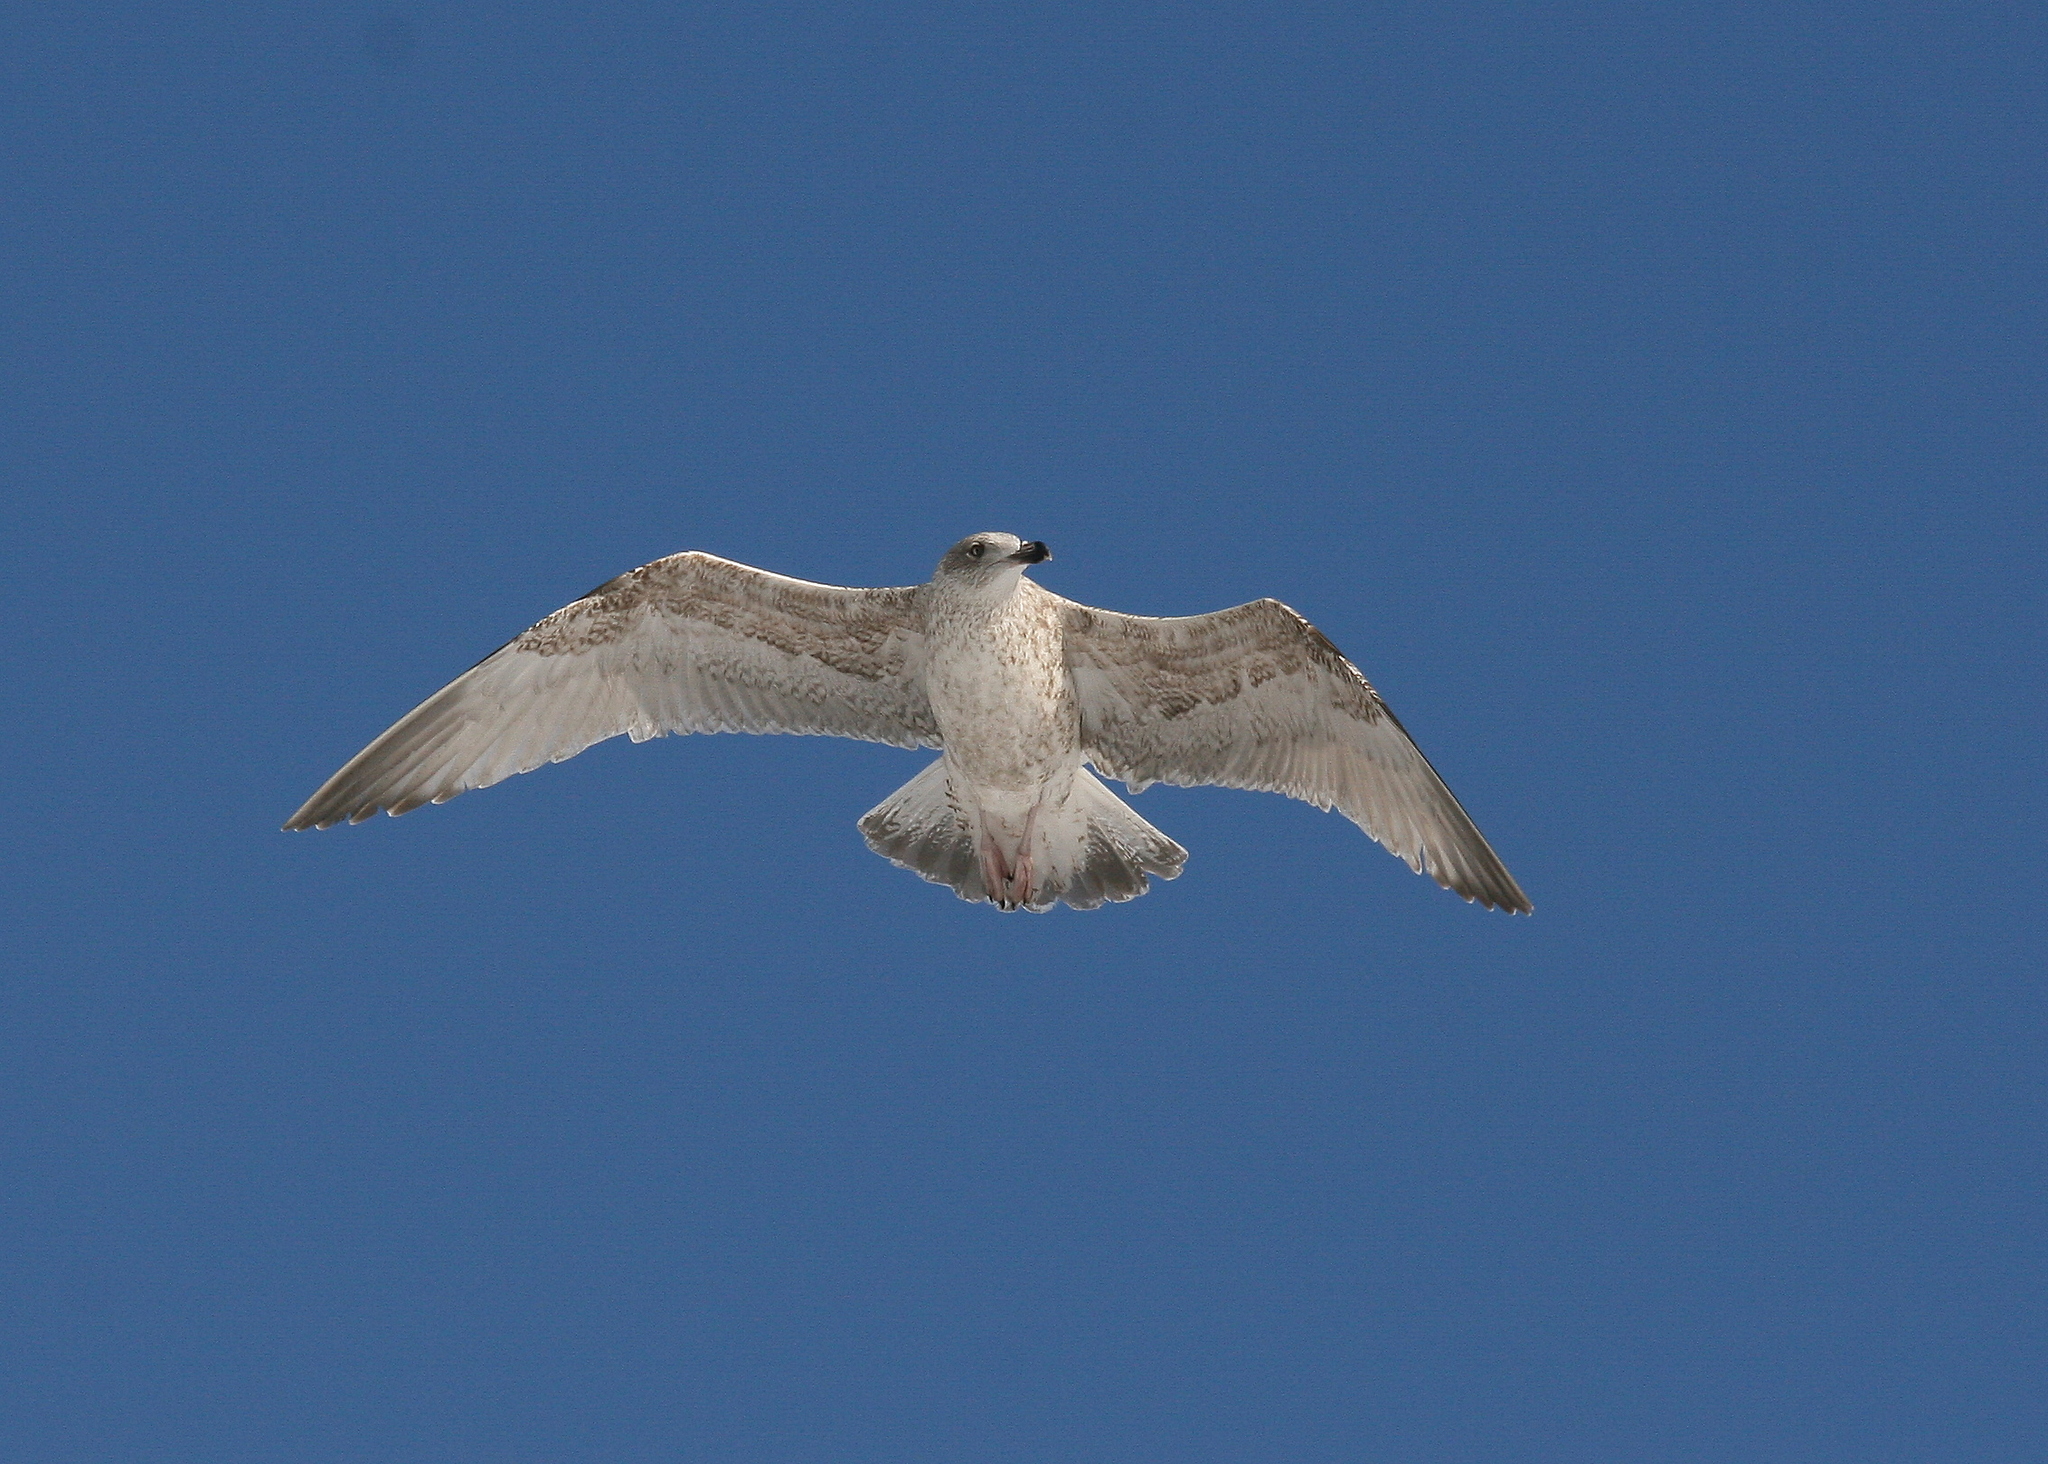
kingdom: Animalia
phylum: Chordata
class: Aves
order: Charadriiformes
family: Laridae
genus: Larus
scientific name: Larus argentatus
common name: Herring gull
